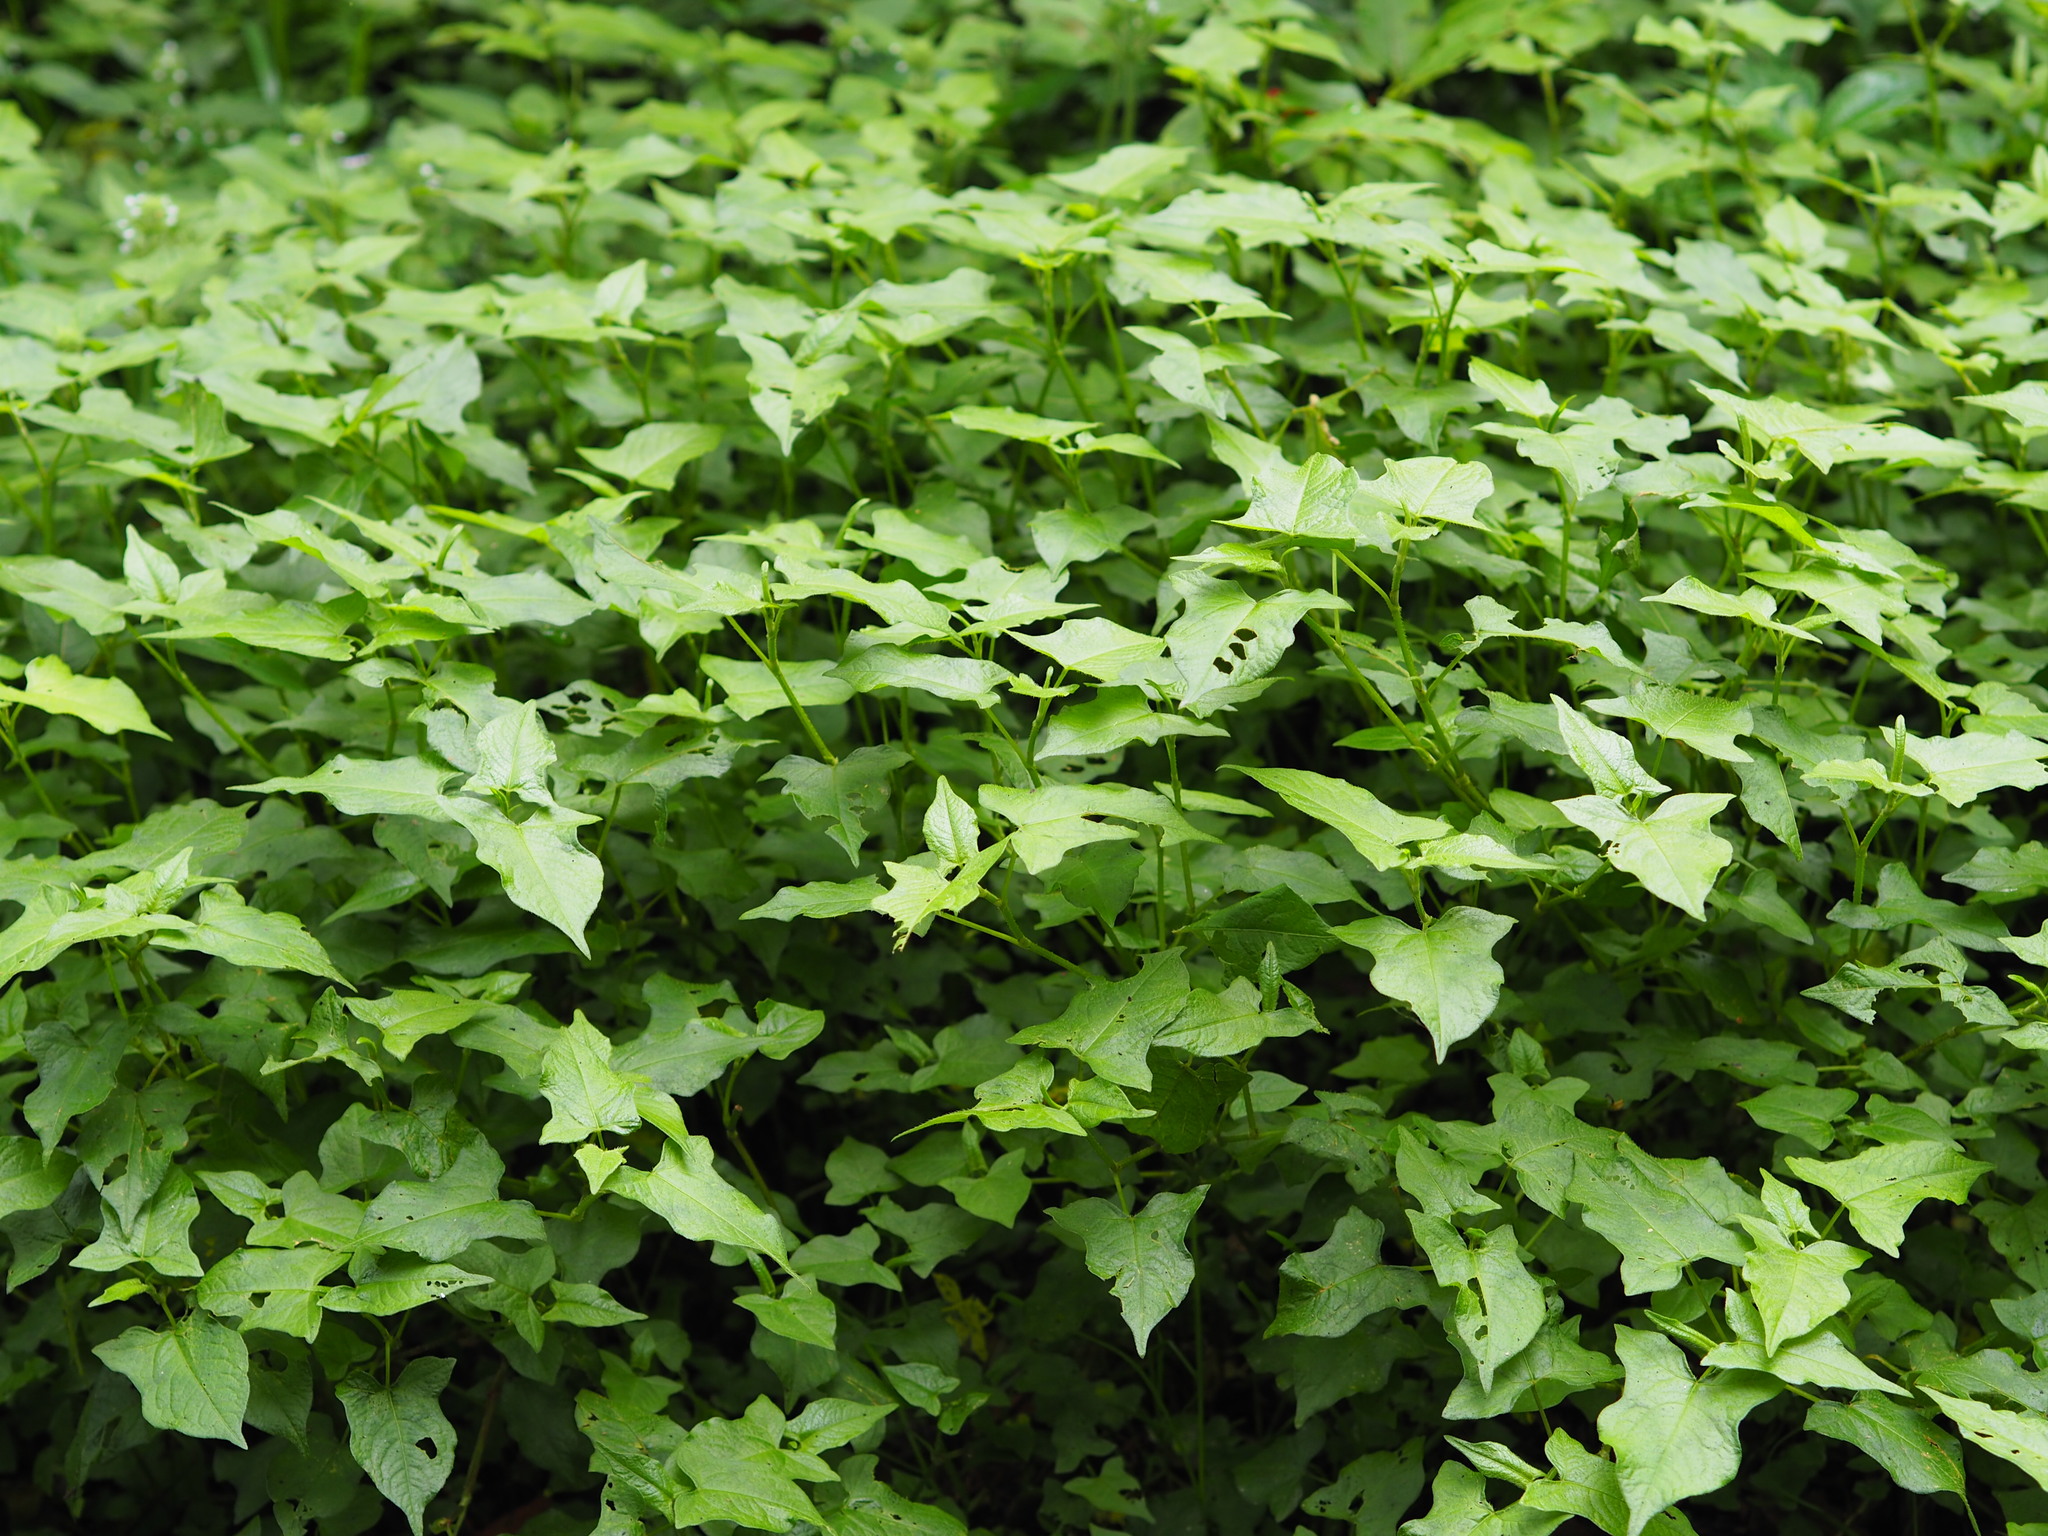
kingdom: Plantae
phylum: Tracheophyta
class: Magnoliopsida
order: Caryophyllales
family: Polygonaceae
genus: Persicaria
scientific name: Persicaria biconvexa
